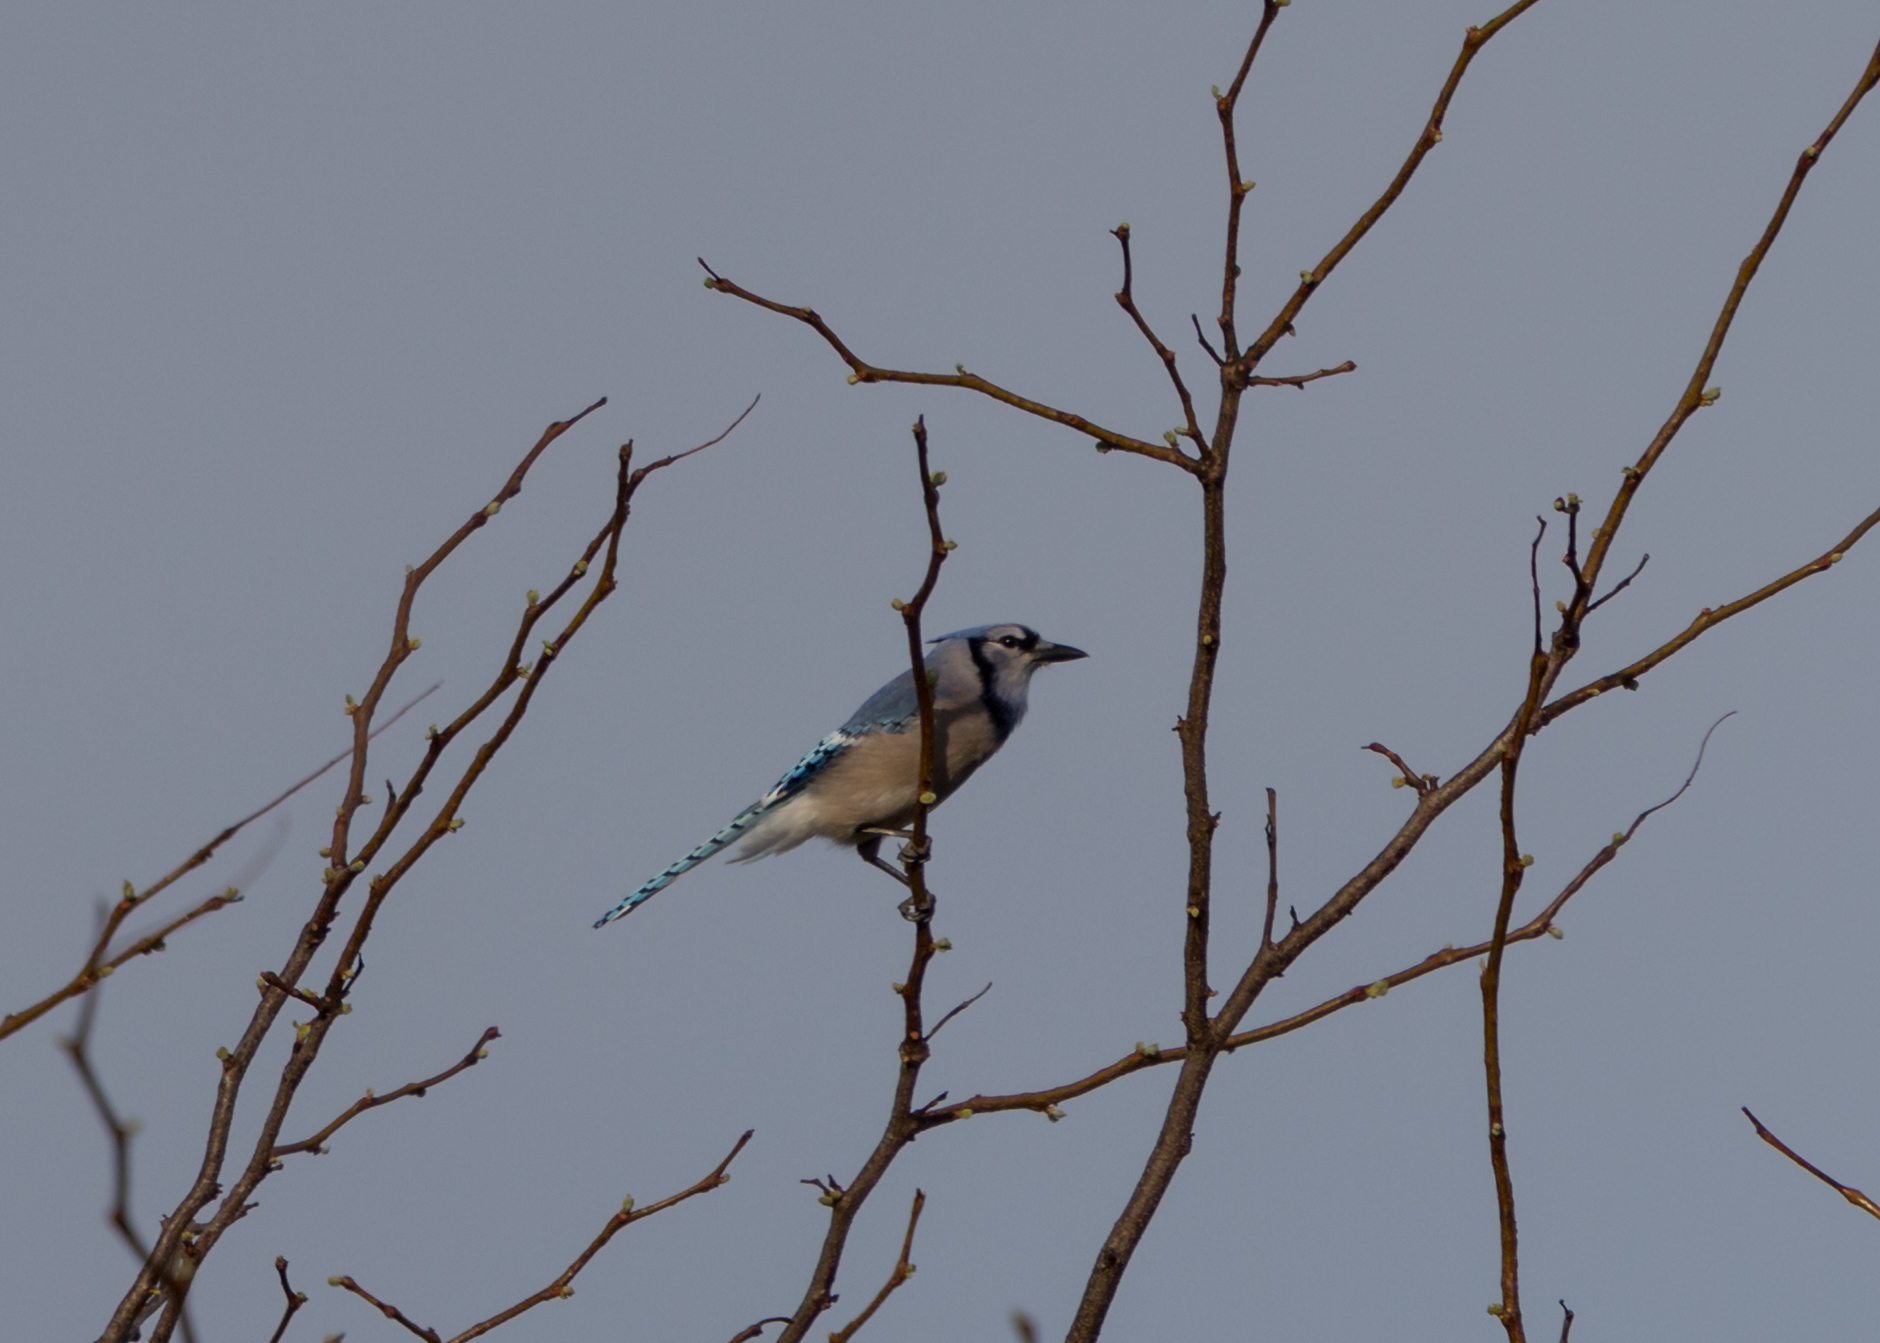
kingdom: Animalia
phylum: Chordata
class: Aves
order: Passeriformes
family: Corvidae
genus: Cyanocitta
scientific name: Cyanocitta cristata
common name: Blue jay
